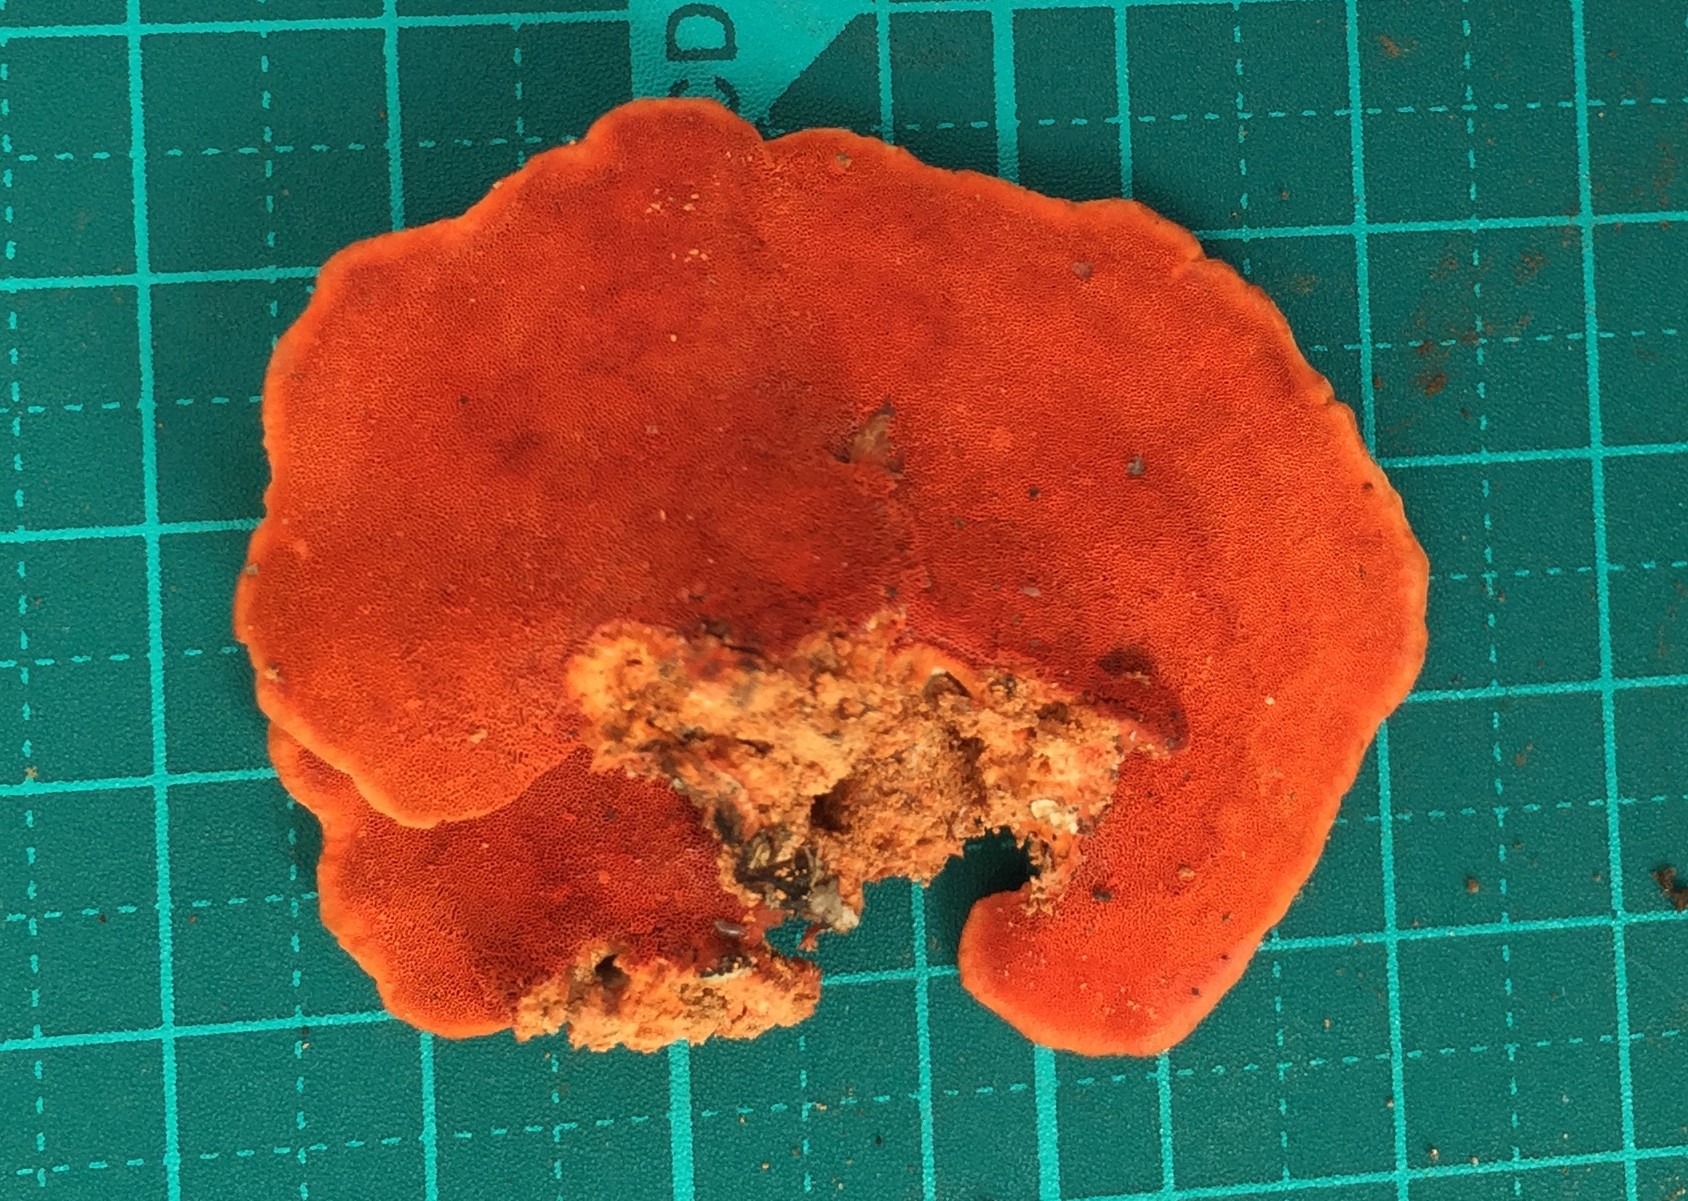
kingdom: Fungi
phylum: Basidiomycota
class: Agaricomycetes
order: Polyporales
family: Polyporaceae
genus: Trametes
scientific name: Trametes coccinea
